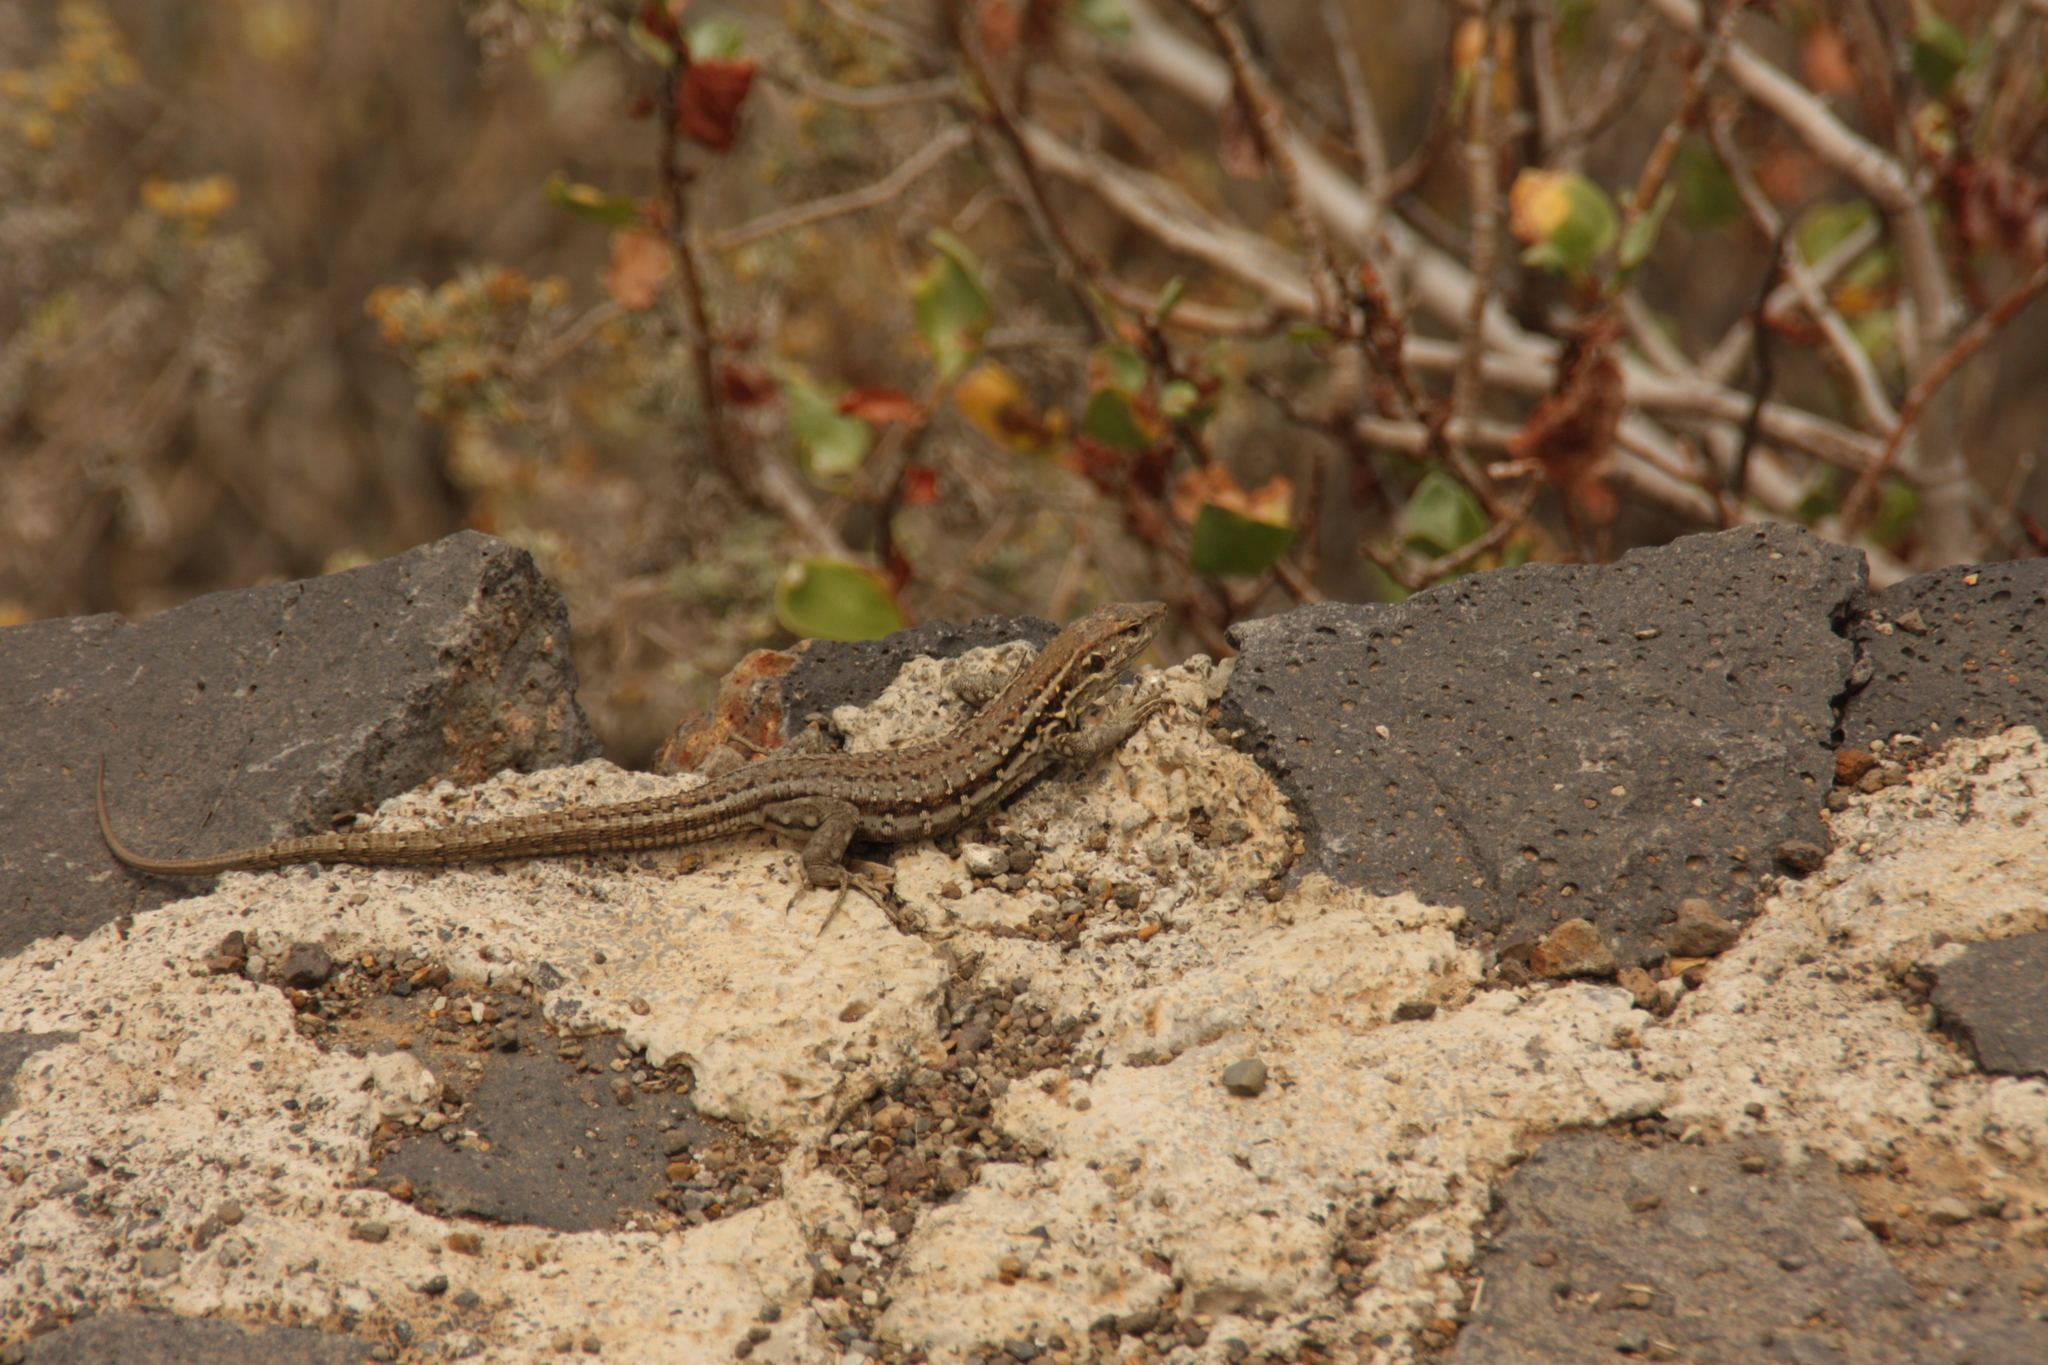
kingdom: Animalia
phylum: Chordata
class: Squamata
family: Lacertidae
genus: Gallotia
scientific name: Gallotia galloti
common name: Gallot's lizard
